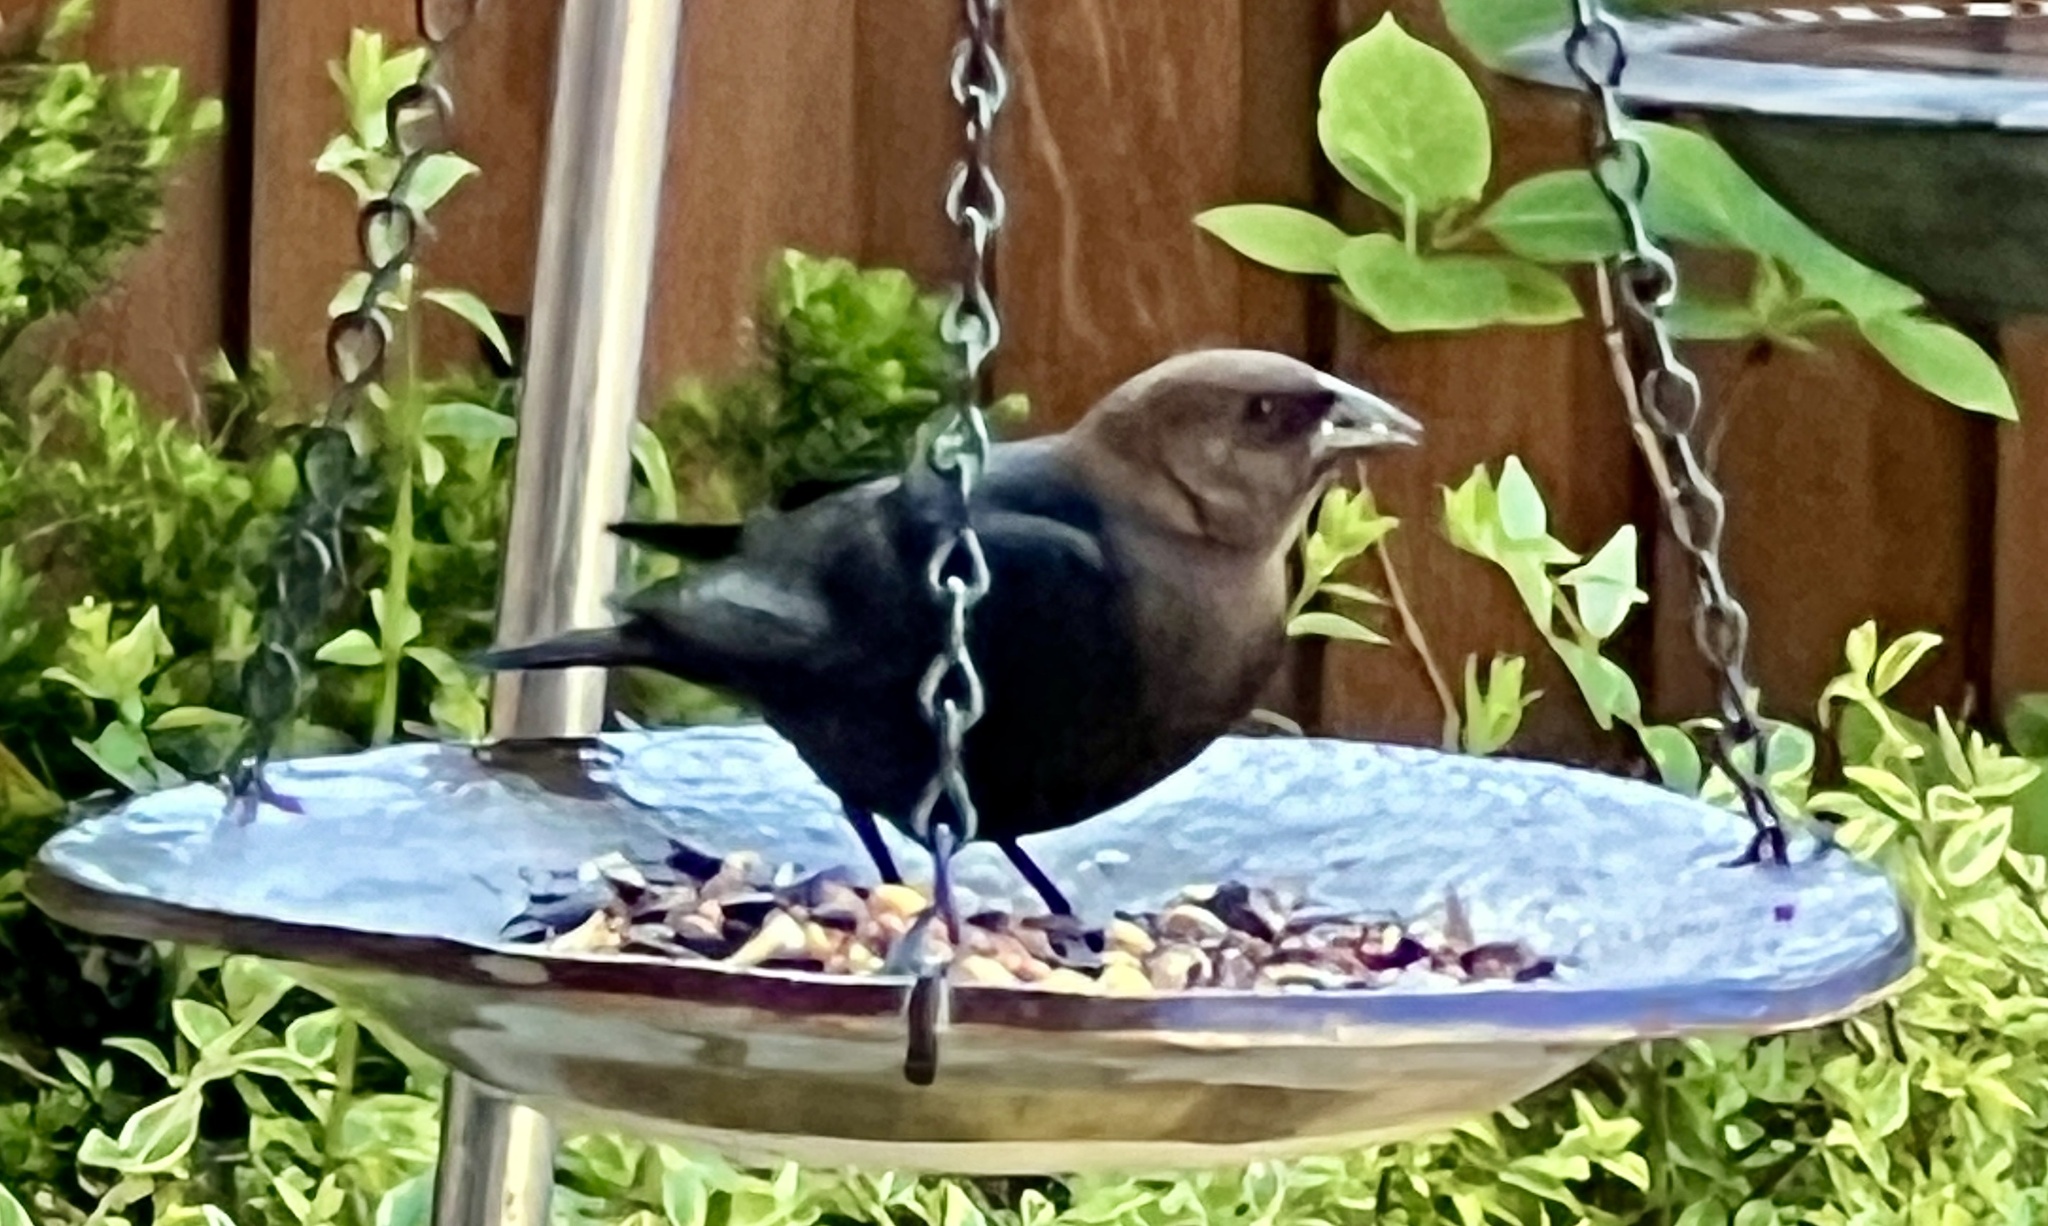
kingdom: Animalia
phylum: Chordata
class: Aves
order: Passeriformes
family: Icteridae
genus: Molothrus
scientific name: Molothrus ater
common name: Brown-headed cowbird
